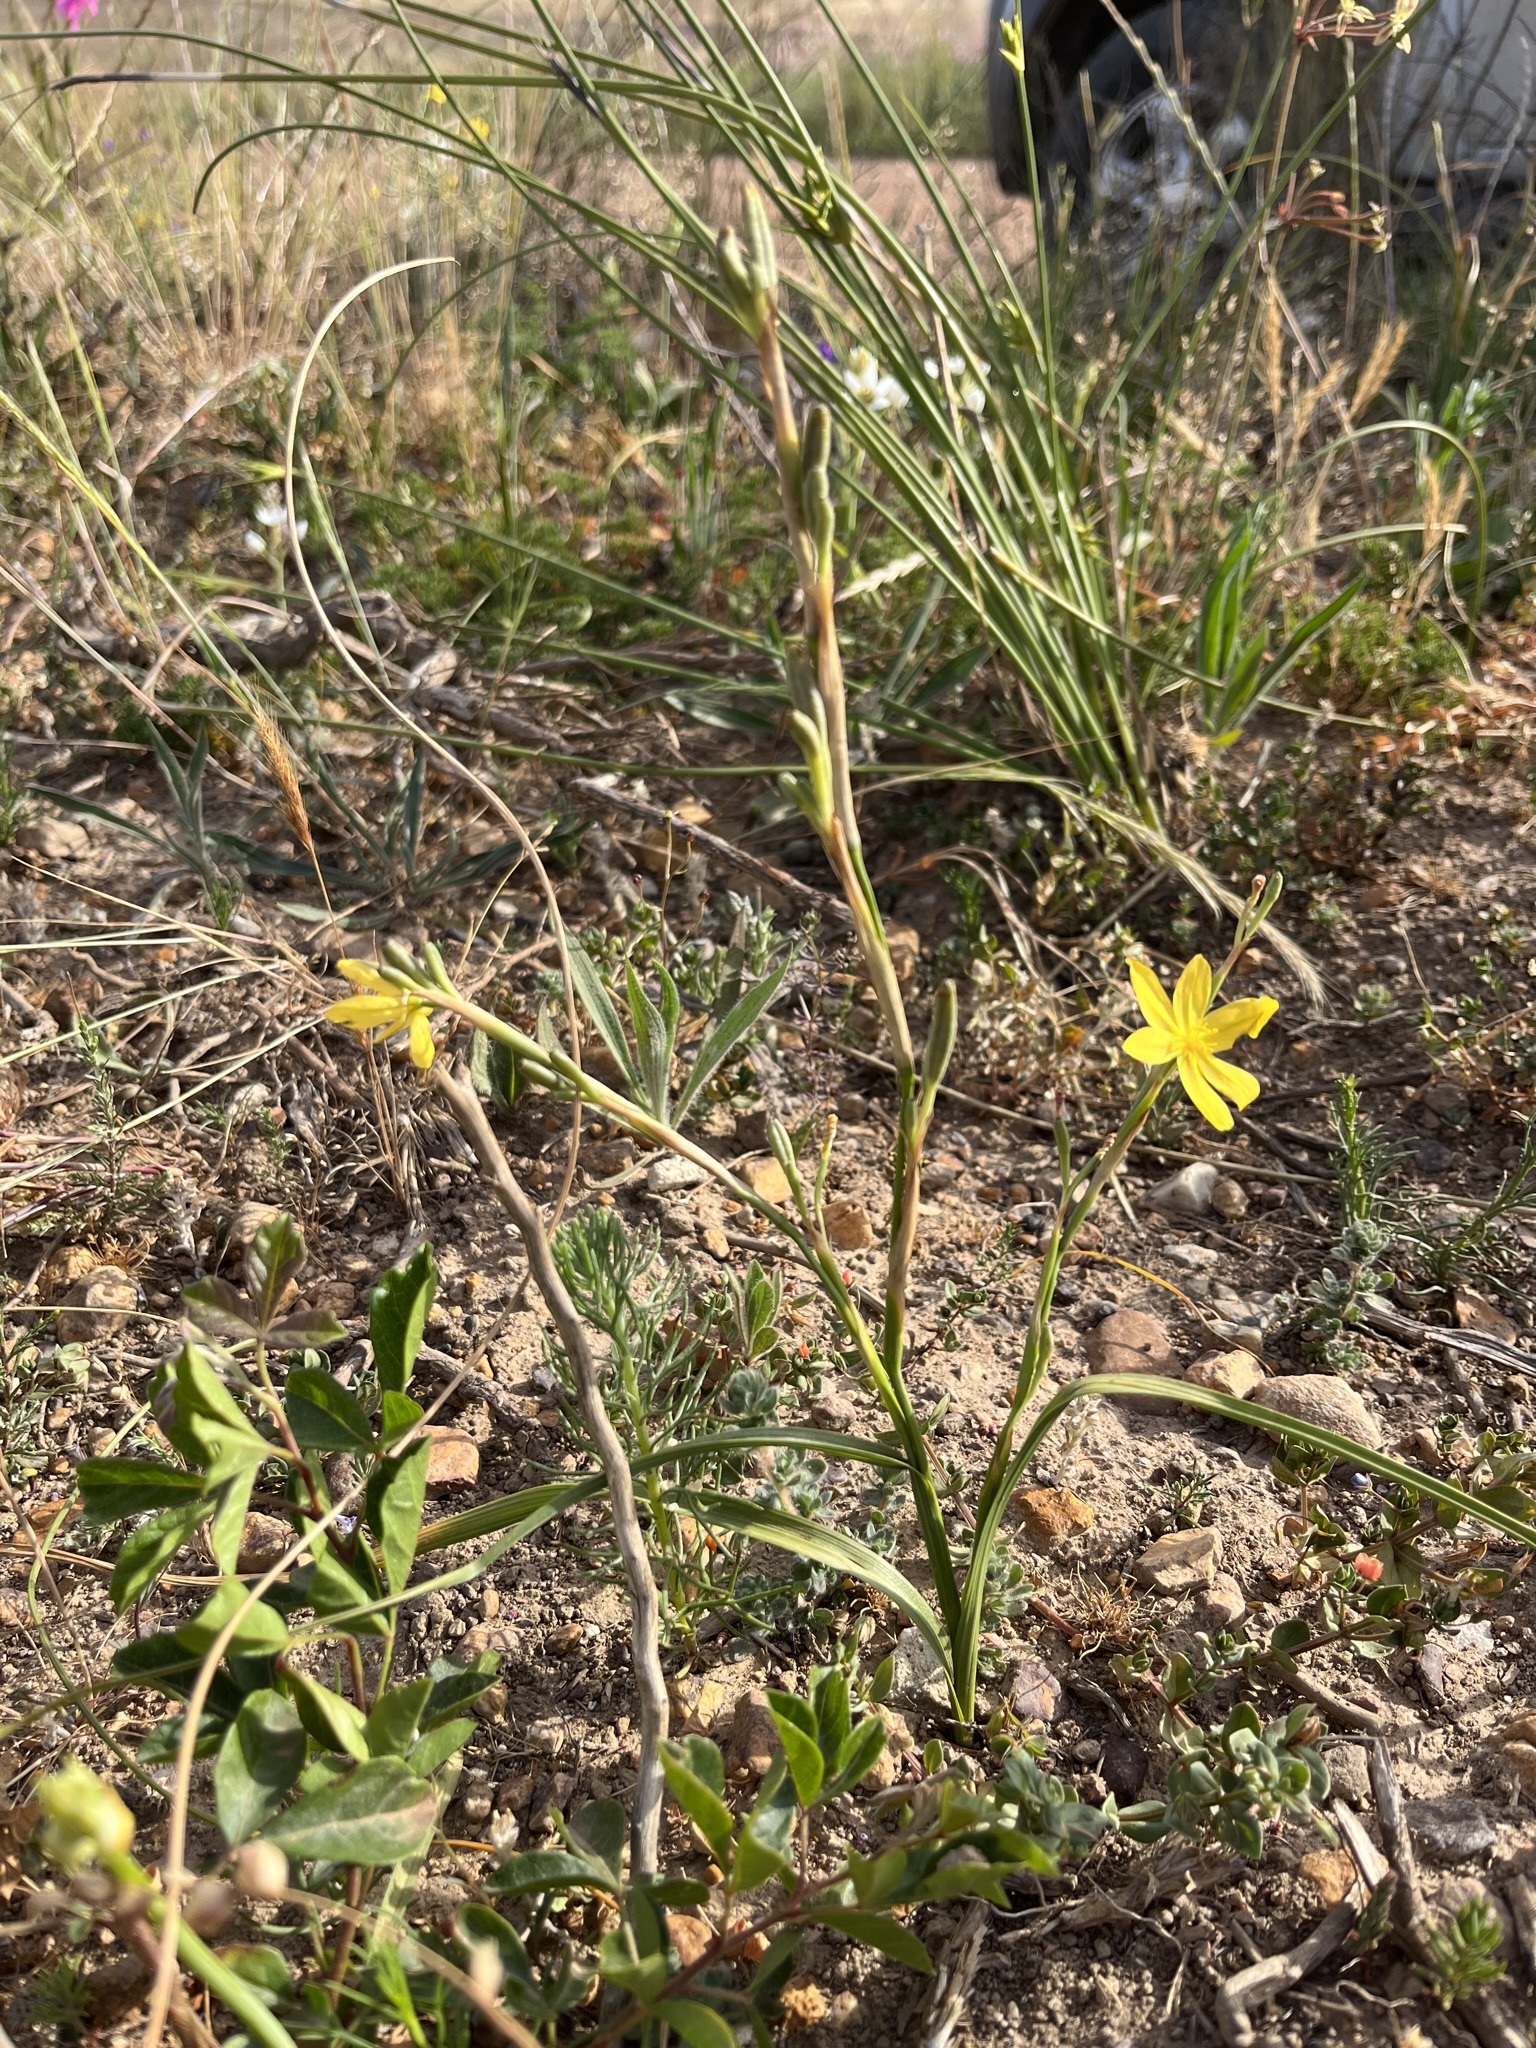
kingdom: Plantae
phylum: Tracheophyta
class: Liliopsida
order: Asparagales
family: Iridaceae
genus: Moraea
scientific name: Moraea lewisiae
